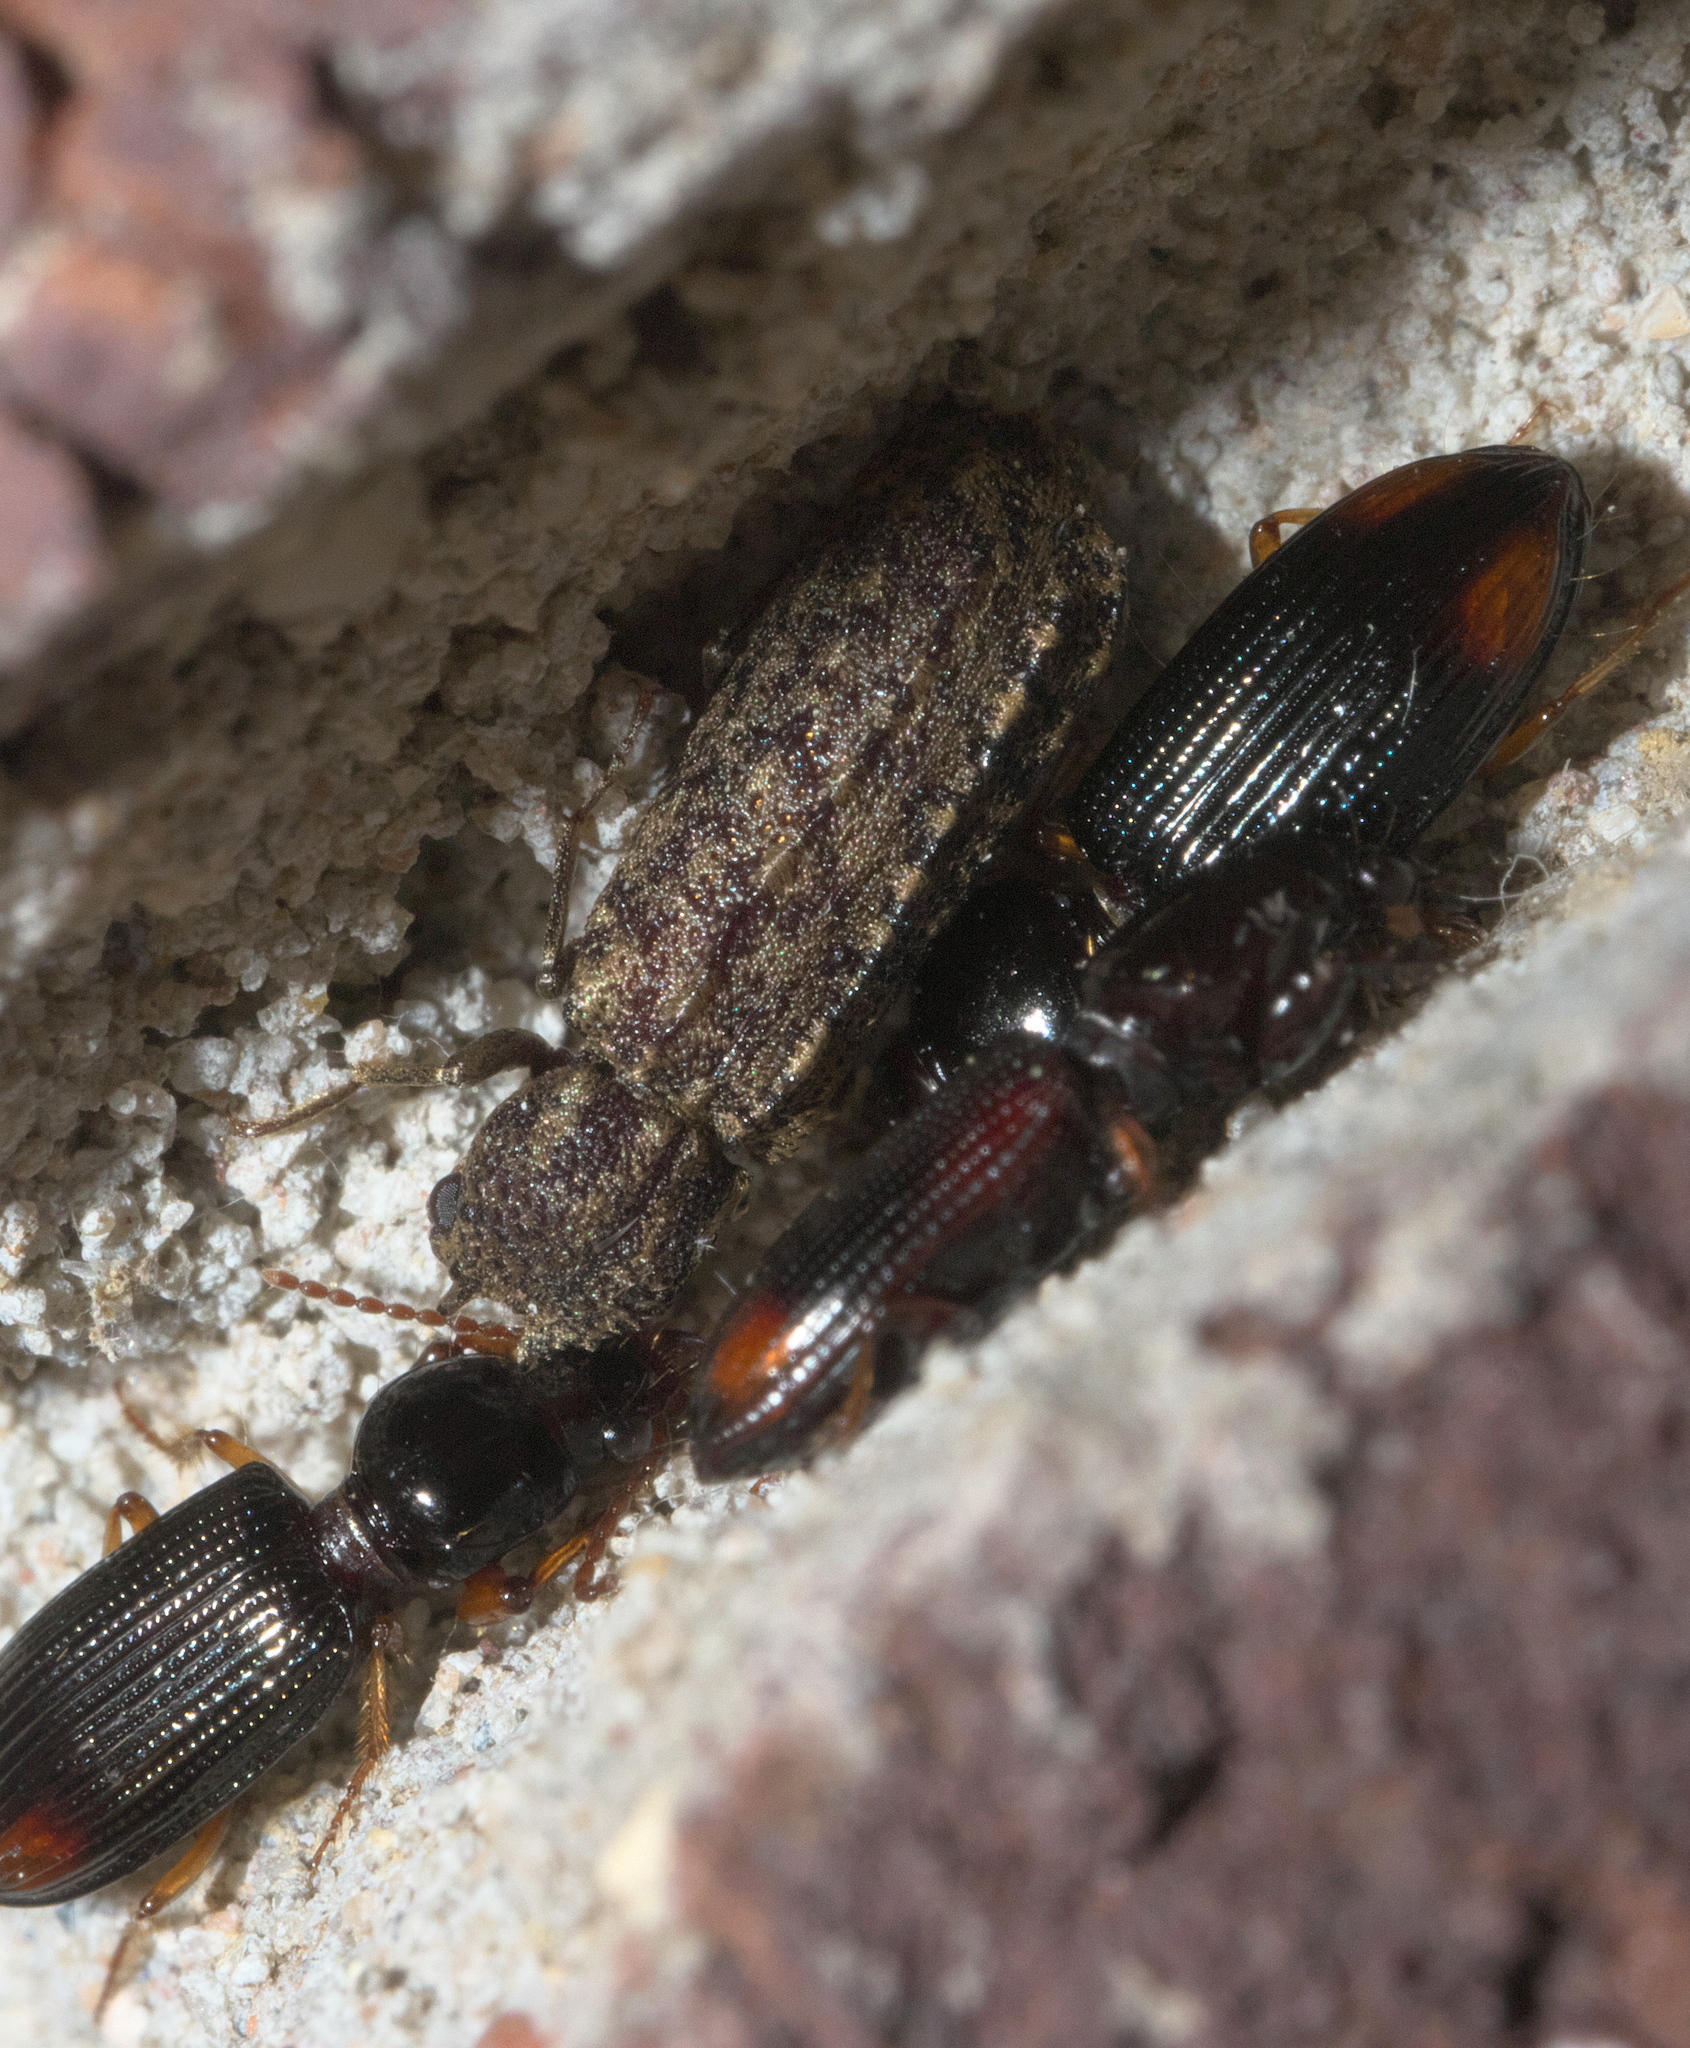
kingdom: Animalia
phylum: Arthropoda
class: Insecta
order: Coleoptera
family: Bostrichidae
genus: Lichenophanes
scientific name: Lichenophanes bicornis
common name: Two-horned powder-post beetle
